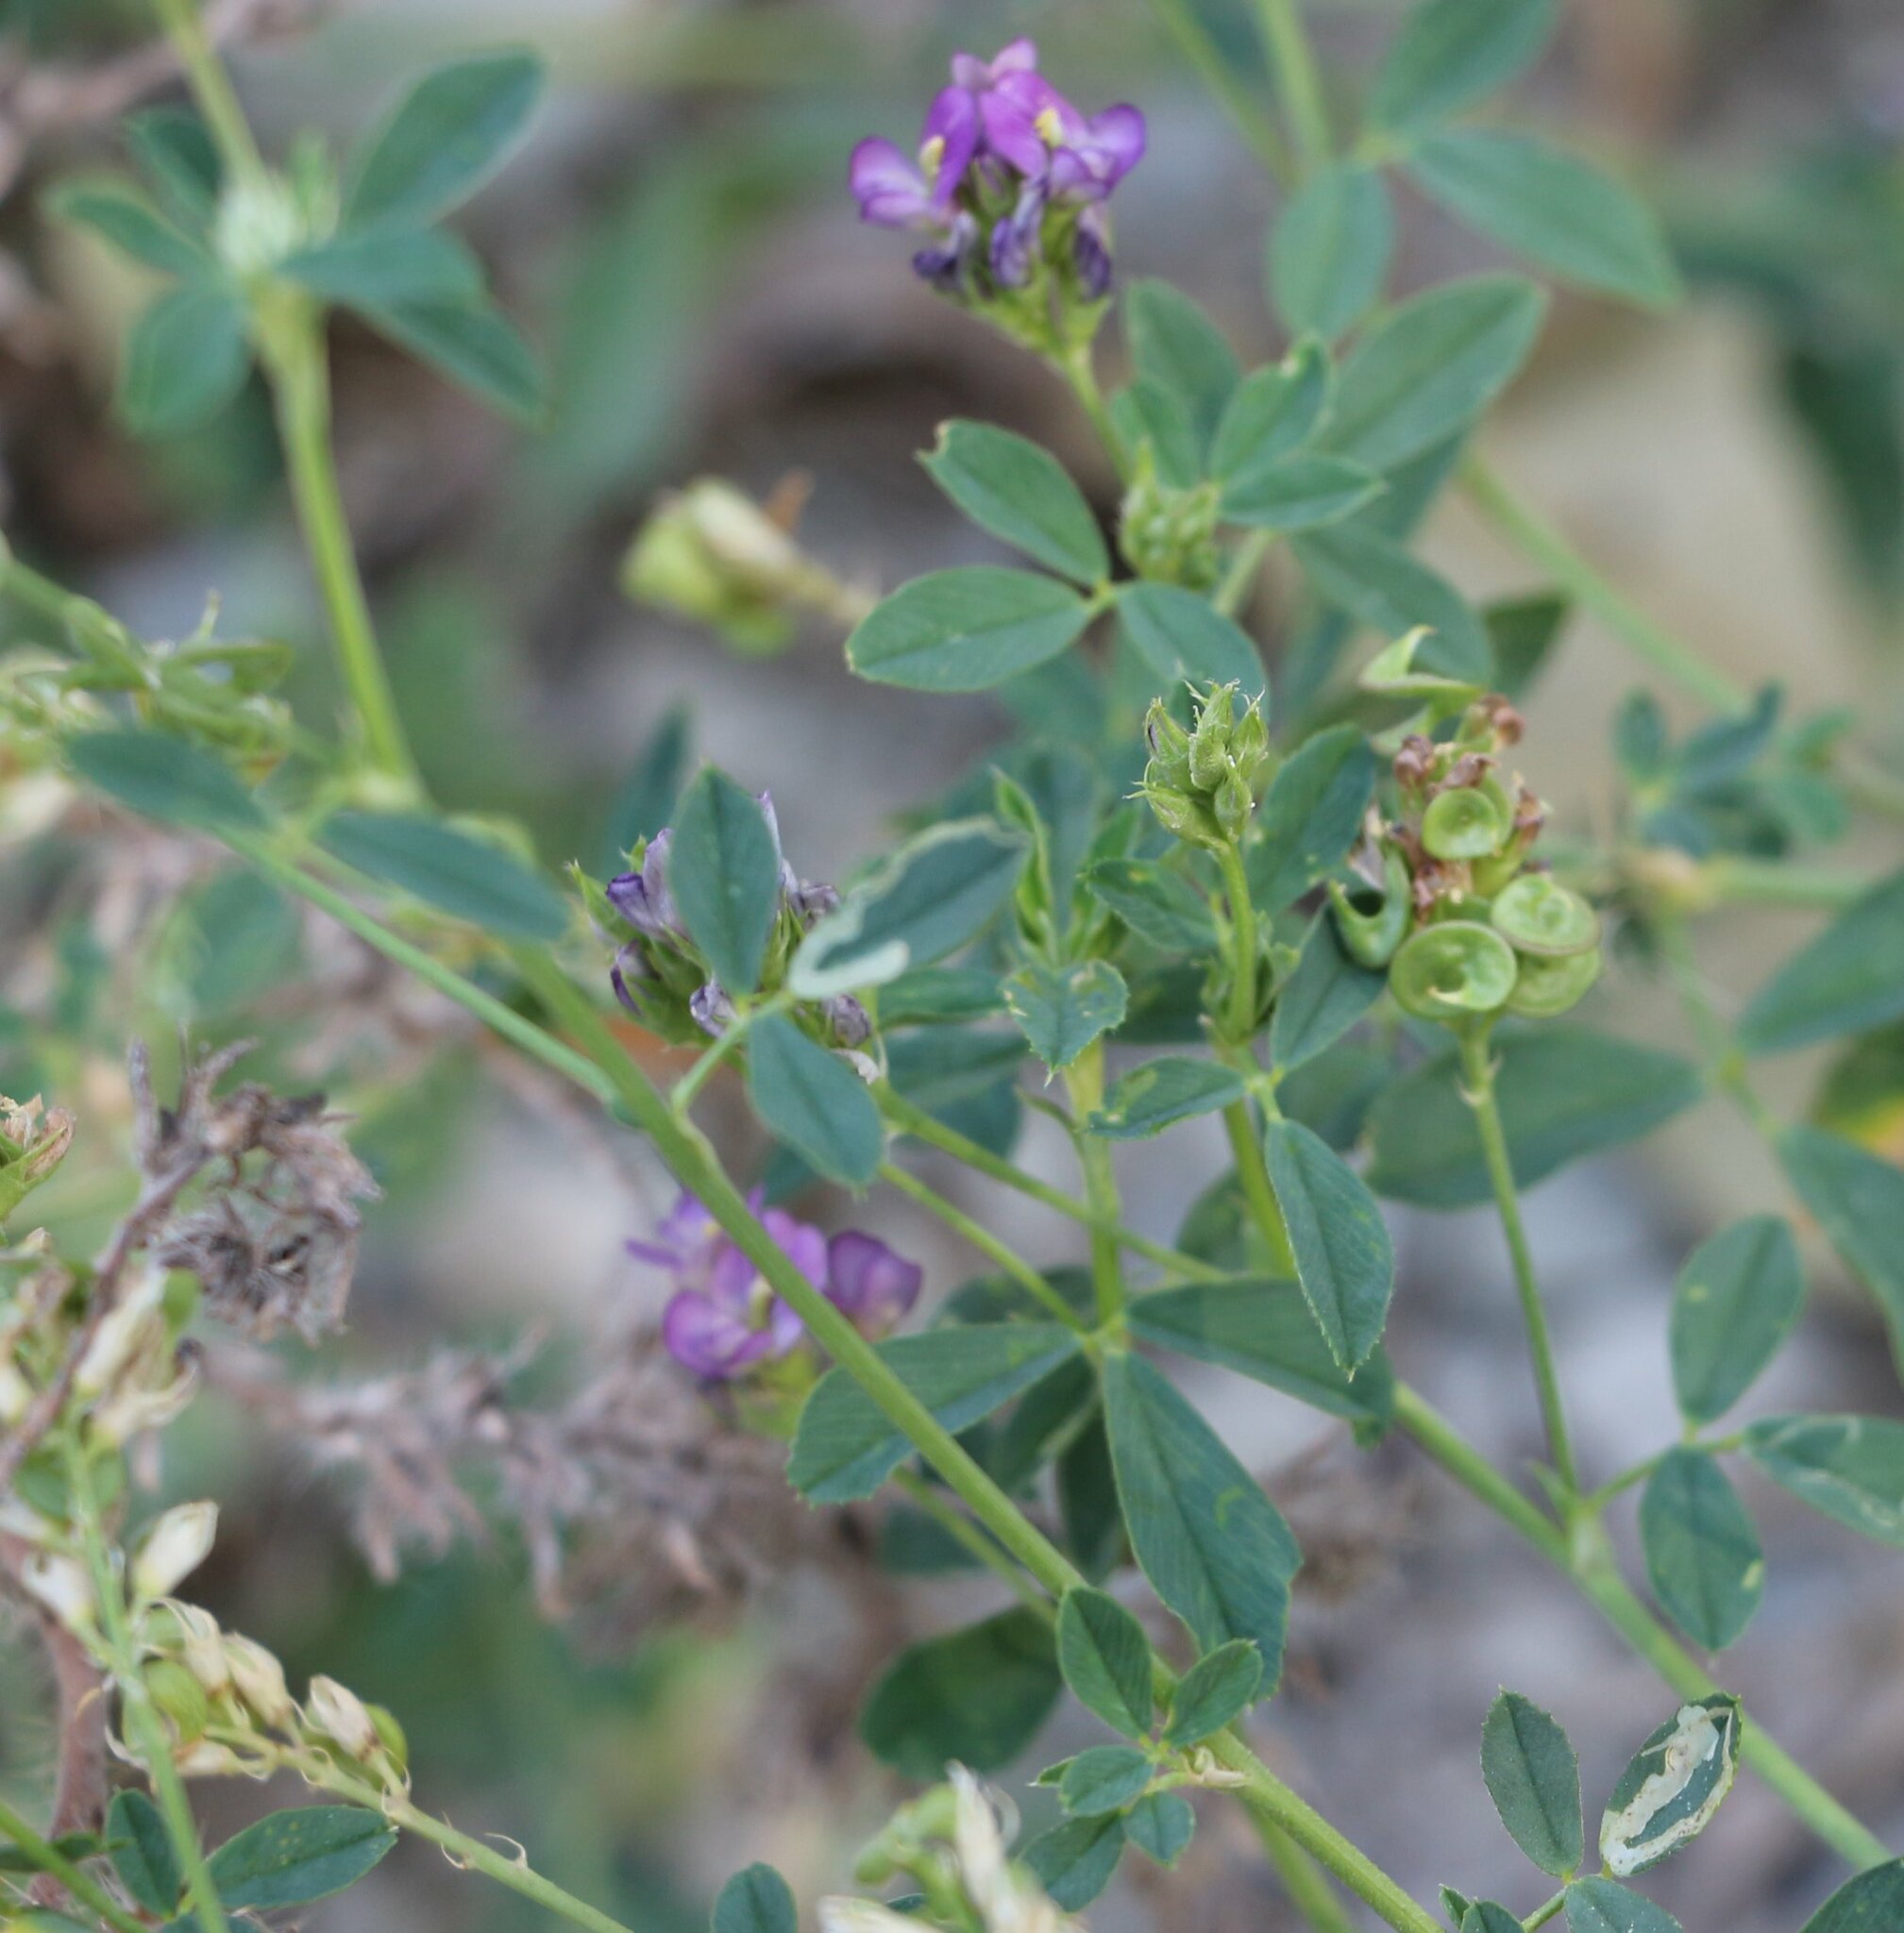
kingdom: Plantae
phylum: Tracheophyta
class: Magnoliopsida
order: Fabales
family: Fabaceae
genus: Medicago
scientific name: Medicago sativa
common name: Alfalfa
